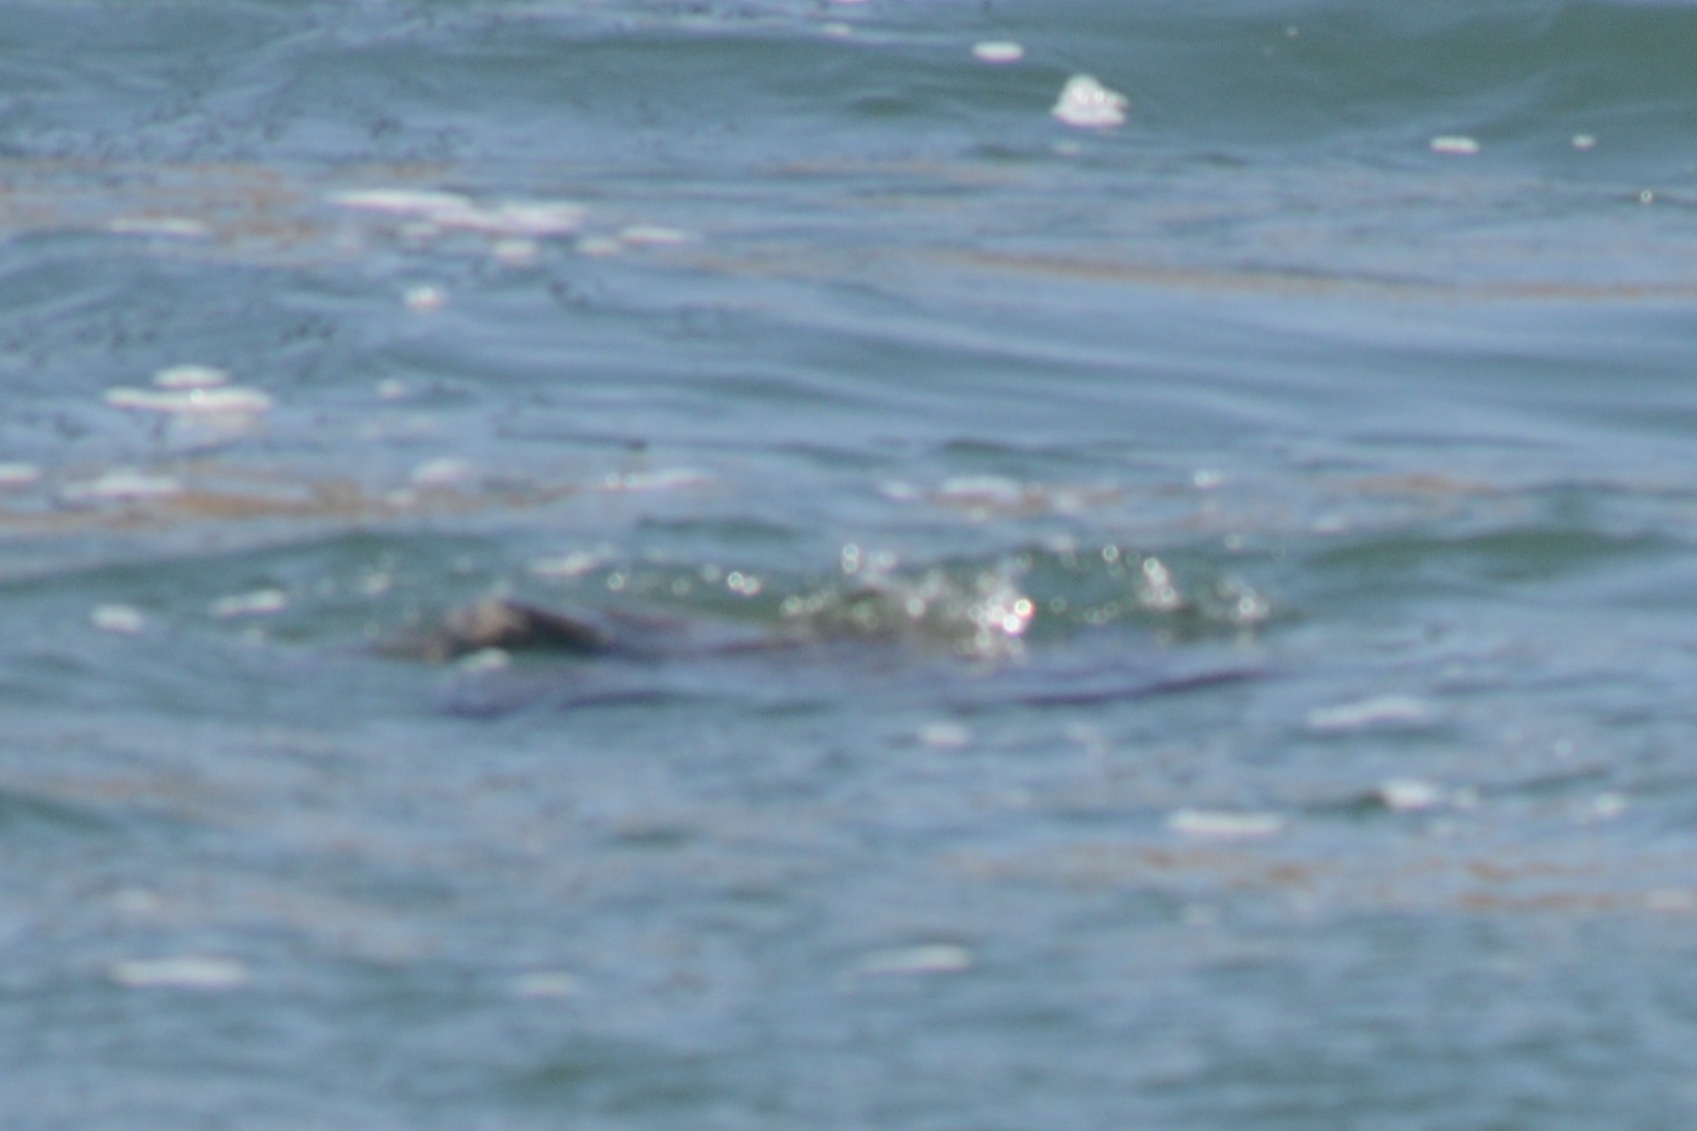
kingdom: Animalia
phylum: Chordata
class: Testudines
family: Cheloniidae
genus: Chelonia
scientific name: Chelonia mydas
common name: Green turtle
